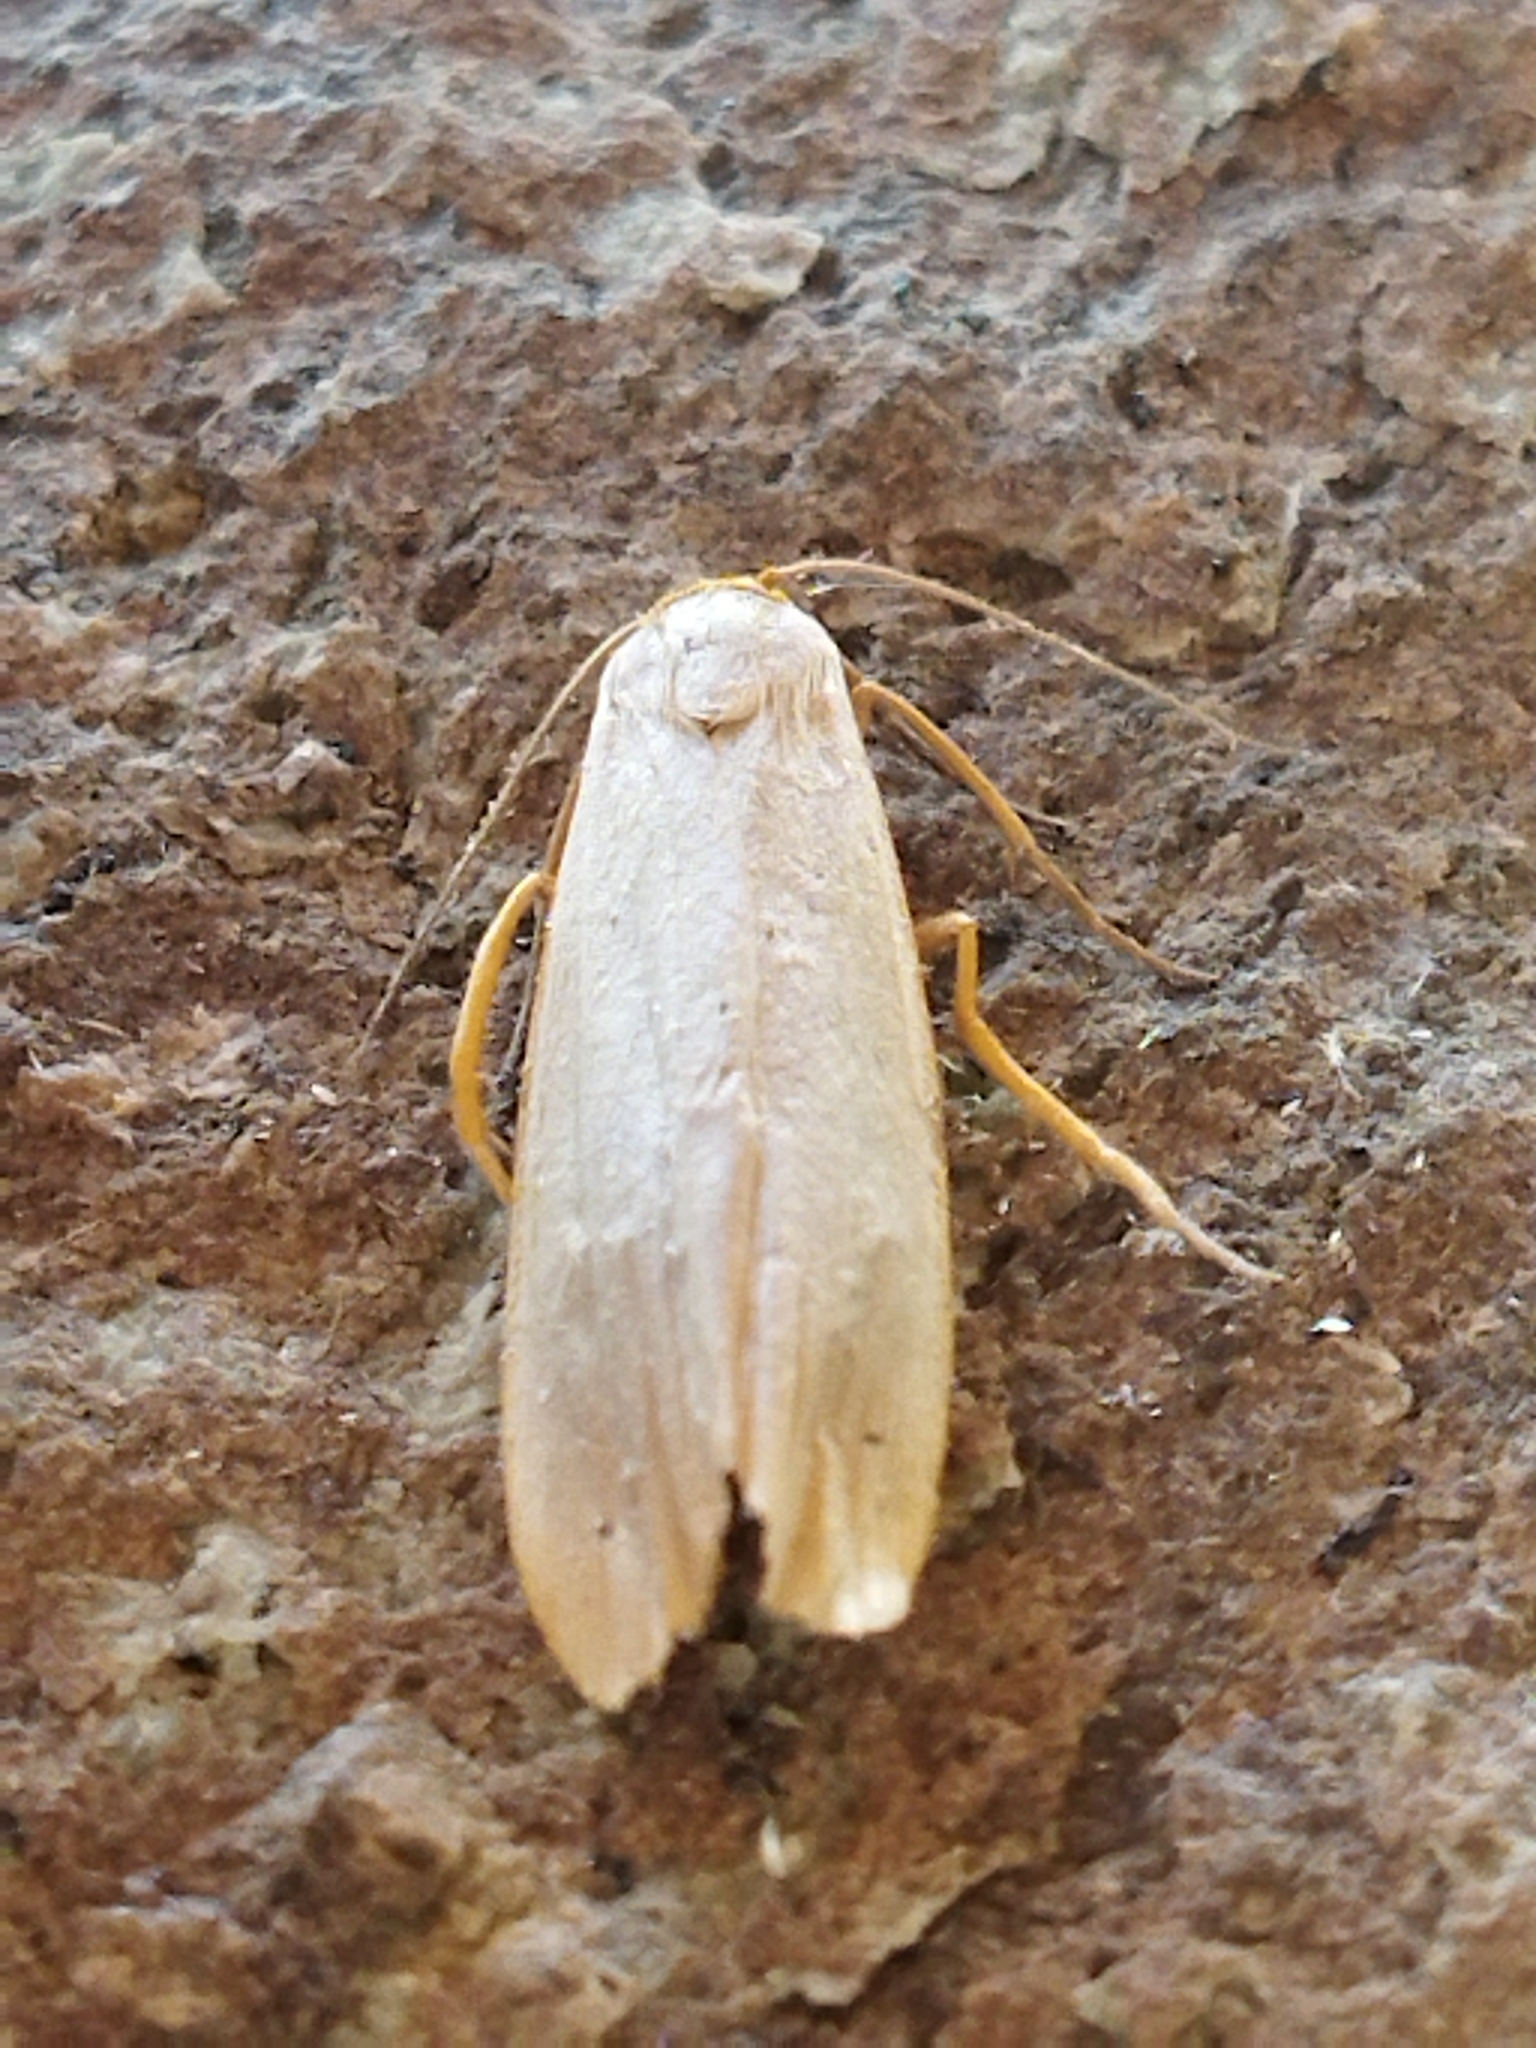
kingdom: Animalia
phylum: Arthropoda
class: Insecta
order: Lepidoptera
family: Erebidae
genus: Eilema
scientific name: Eilema caniola
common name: Hoary footman
